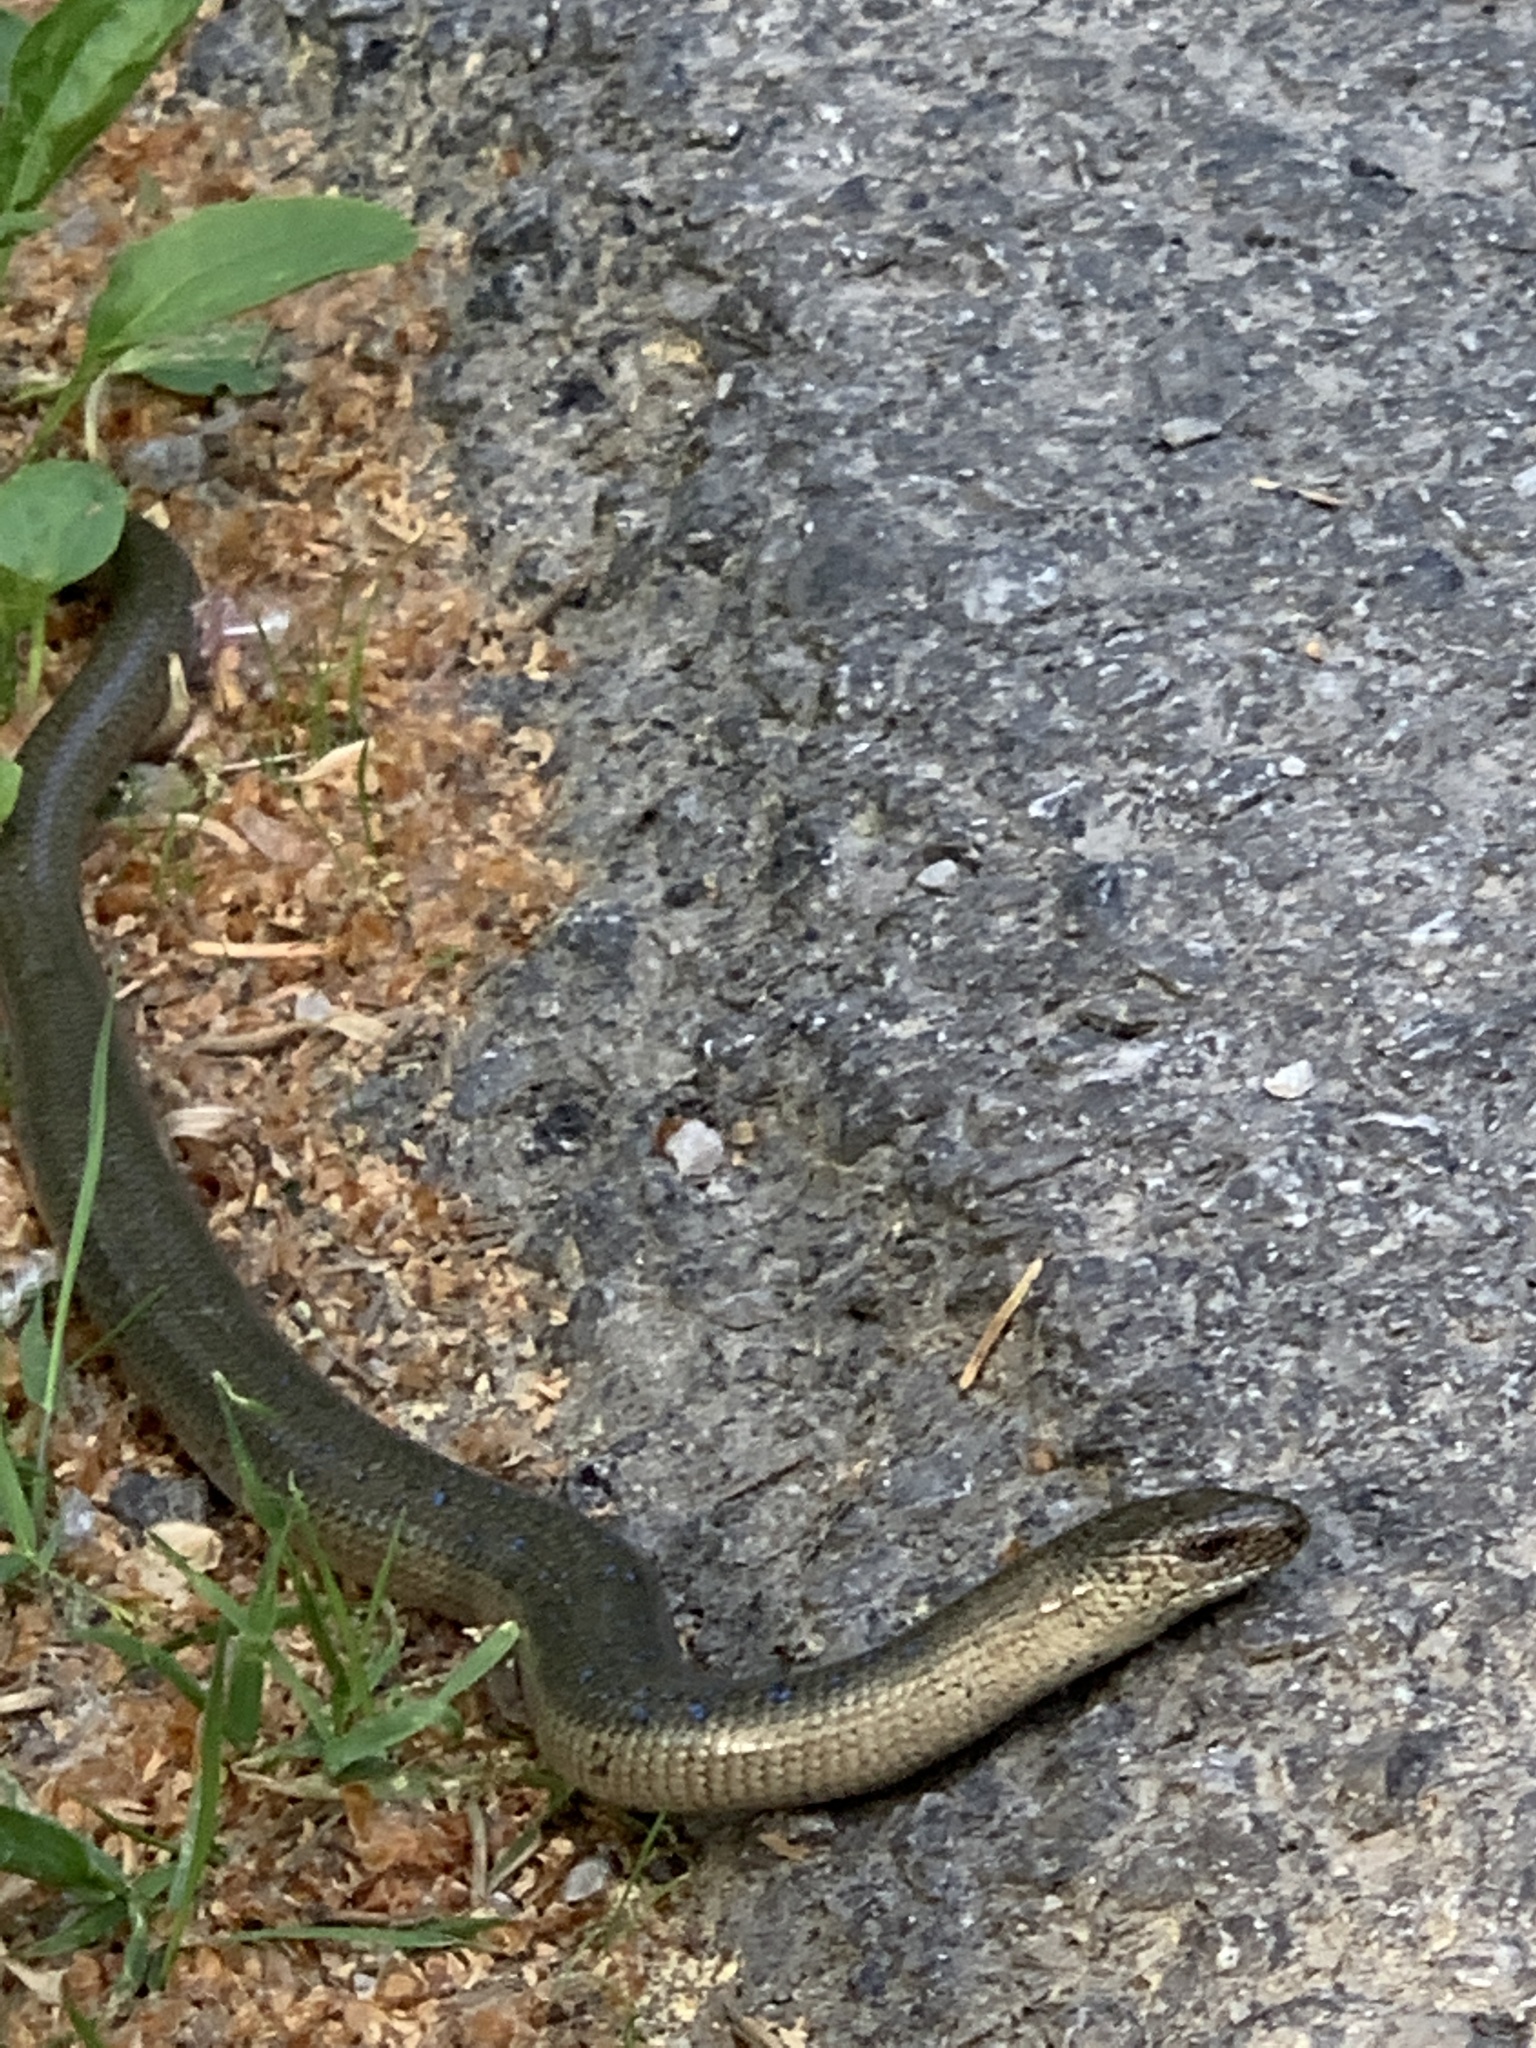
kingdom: Animalia
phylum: Chordata
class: Squamata
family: Anguidae
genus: Anguis
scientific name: Anguis colchica
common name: Slow worm
